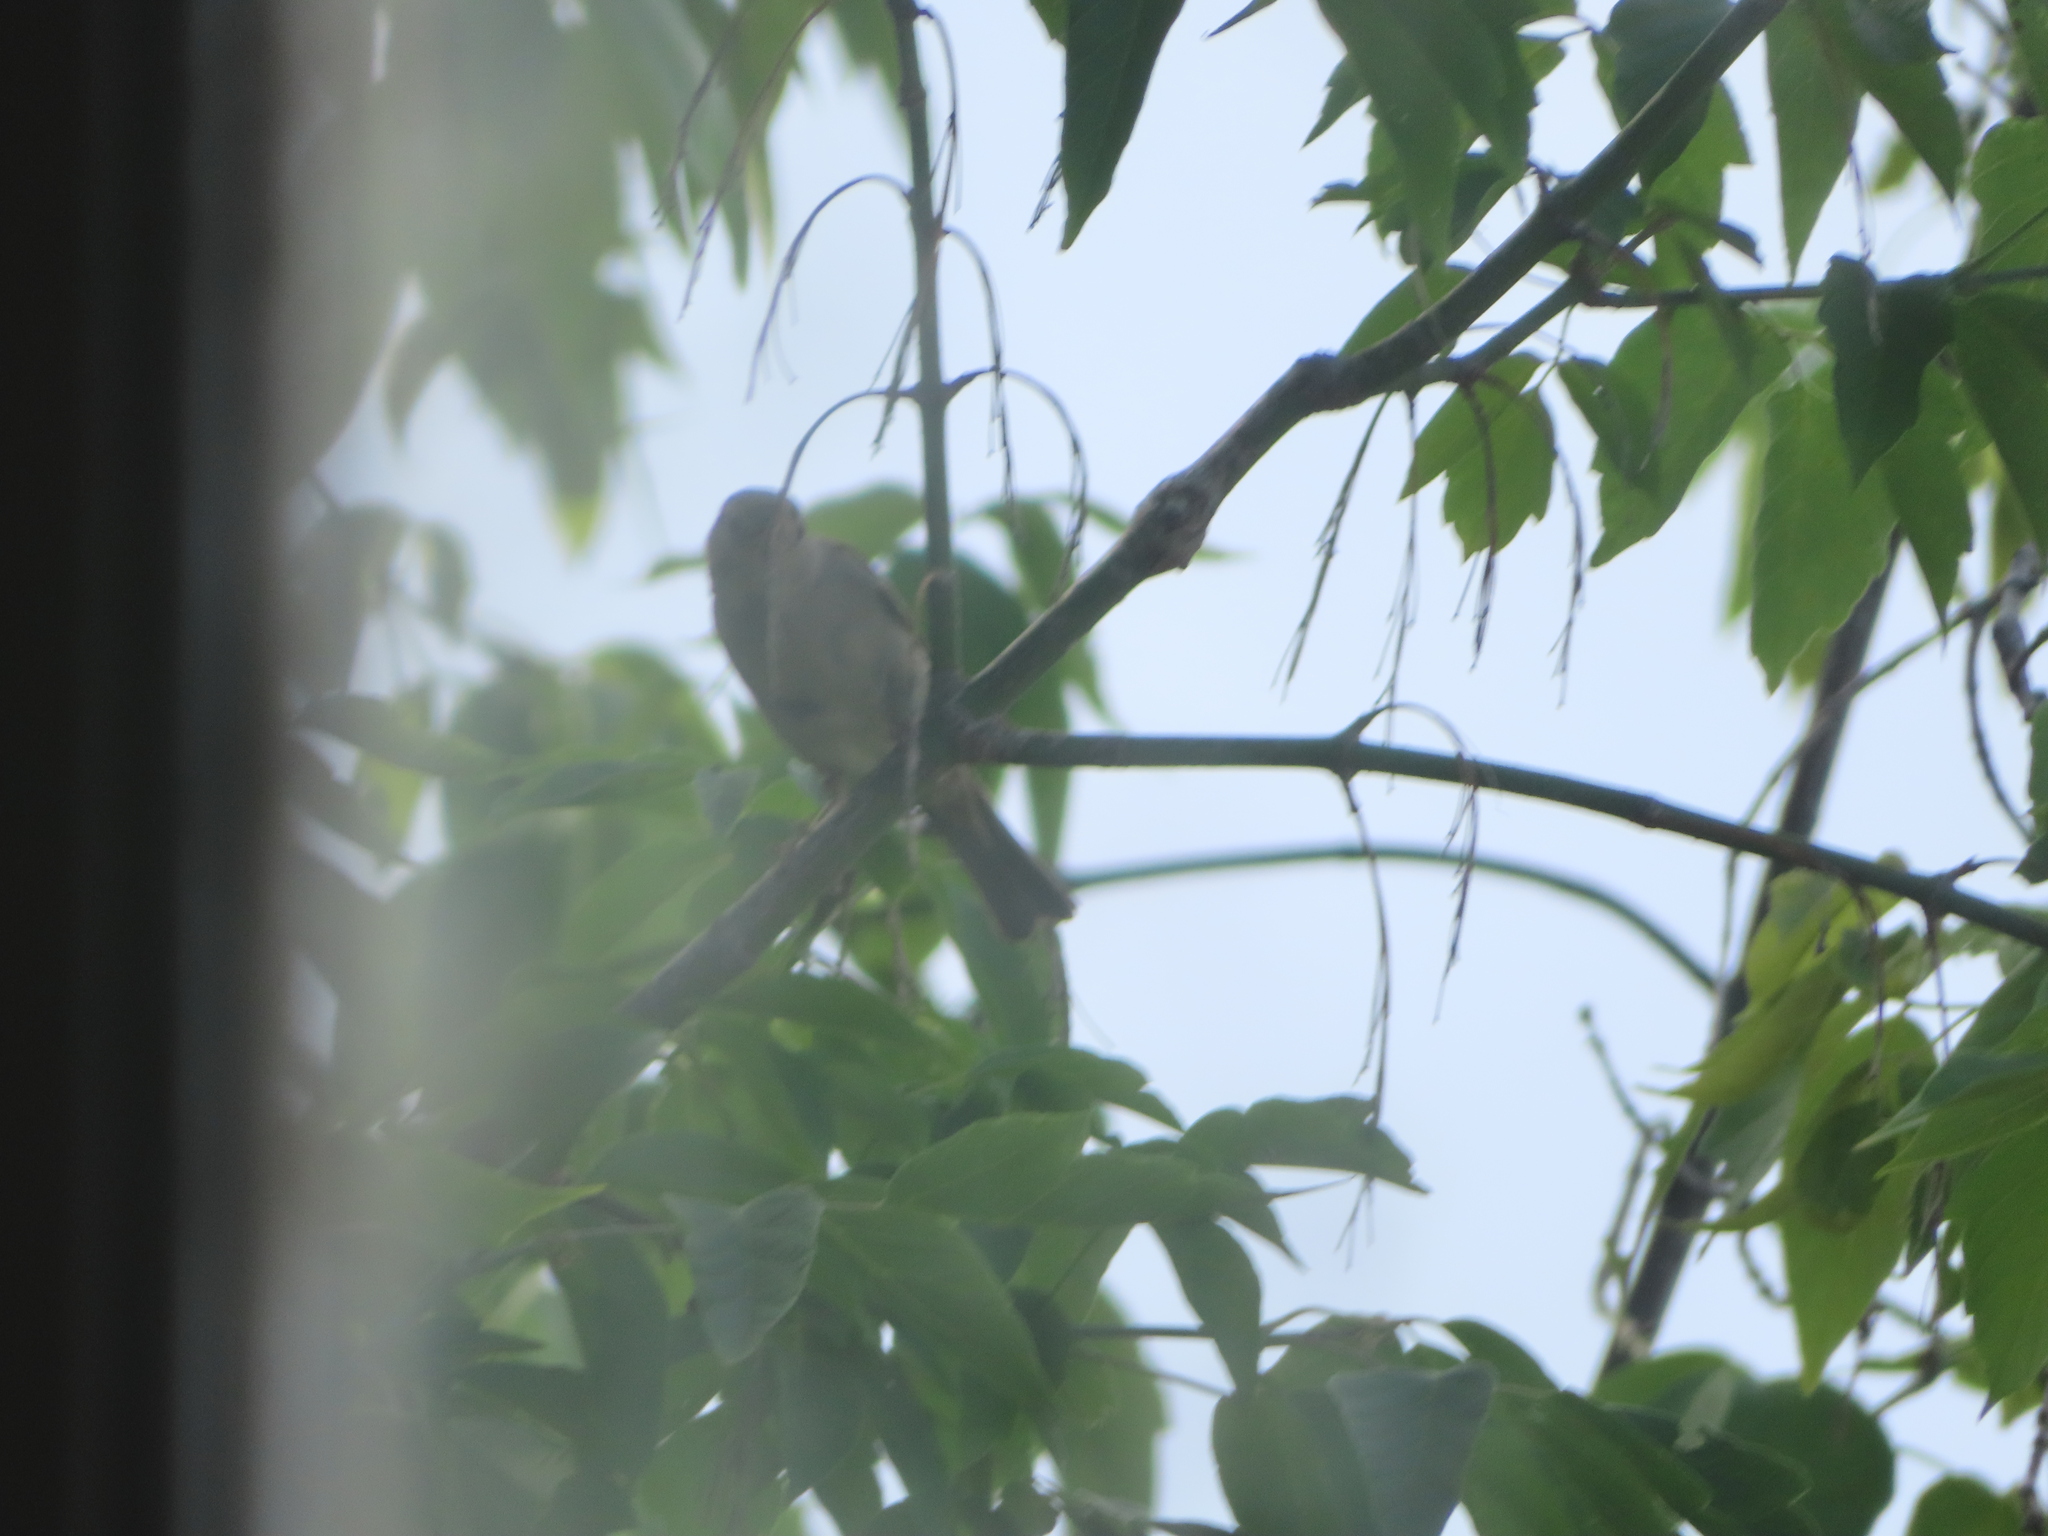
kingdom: Animalia
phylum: Chordata
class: Aves
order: Passeriformes
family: Passeridae
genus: Passer
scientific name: Passer domesticus
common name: House sparrow
